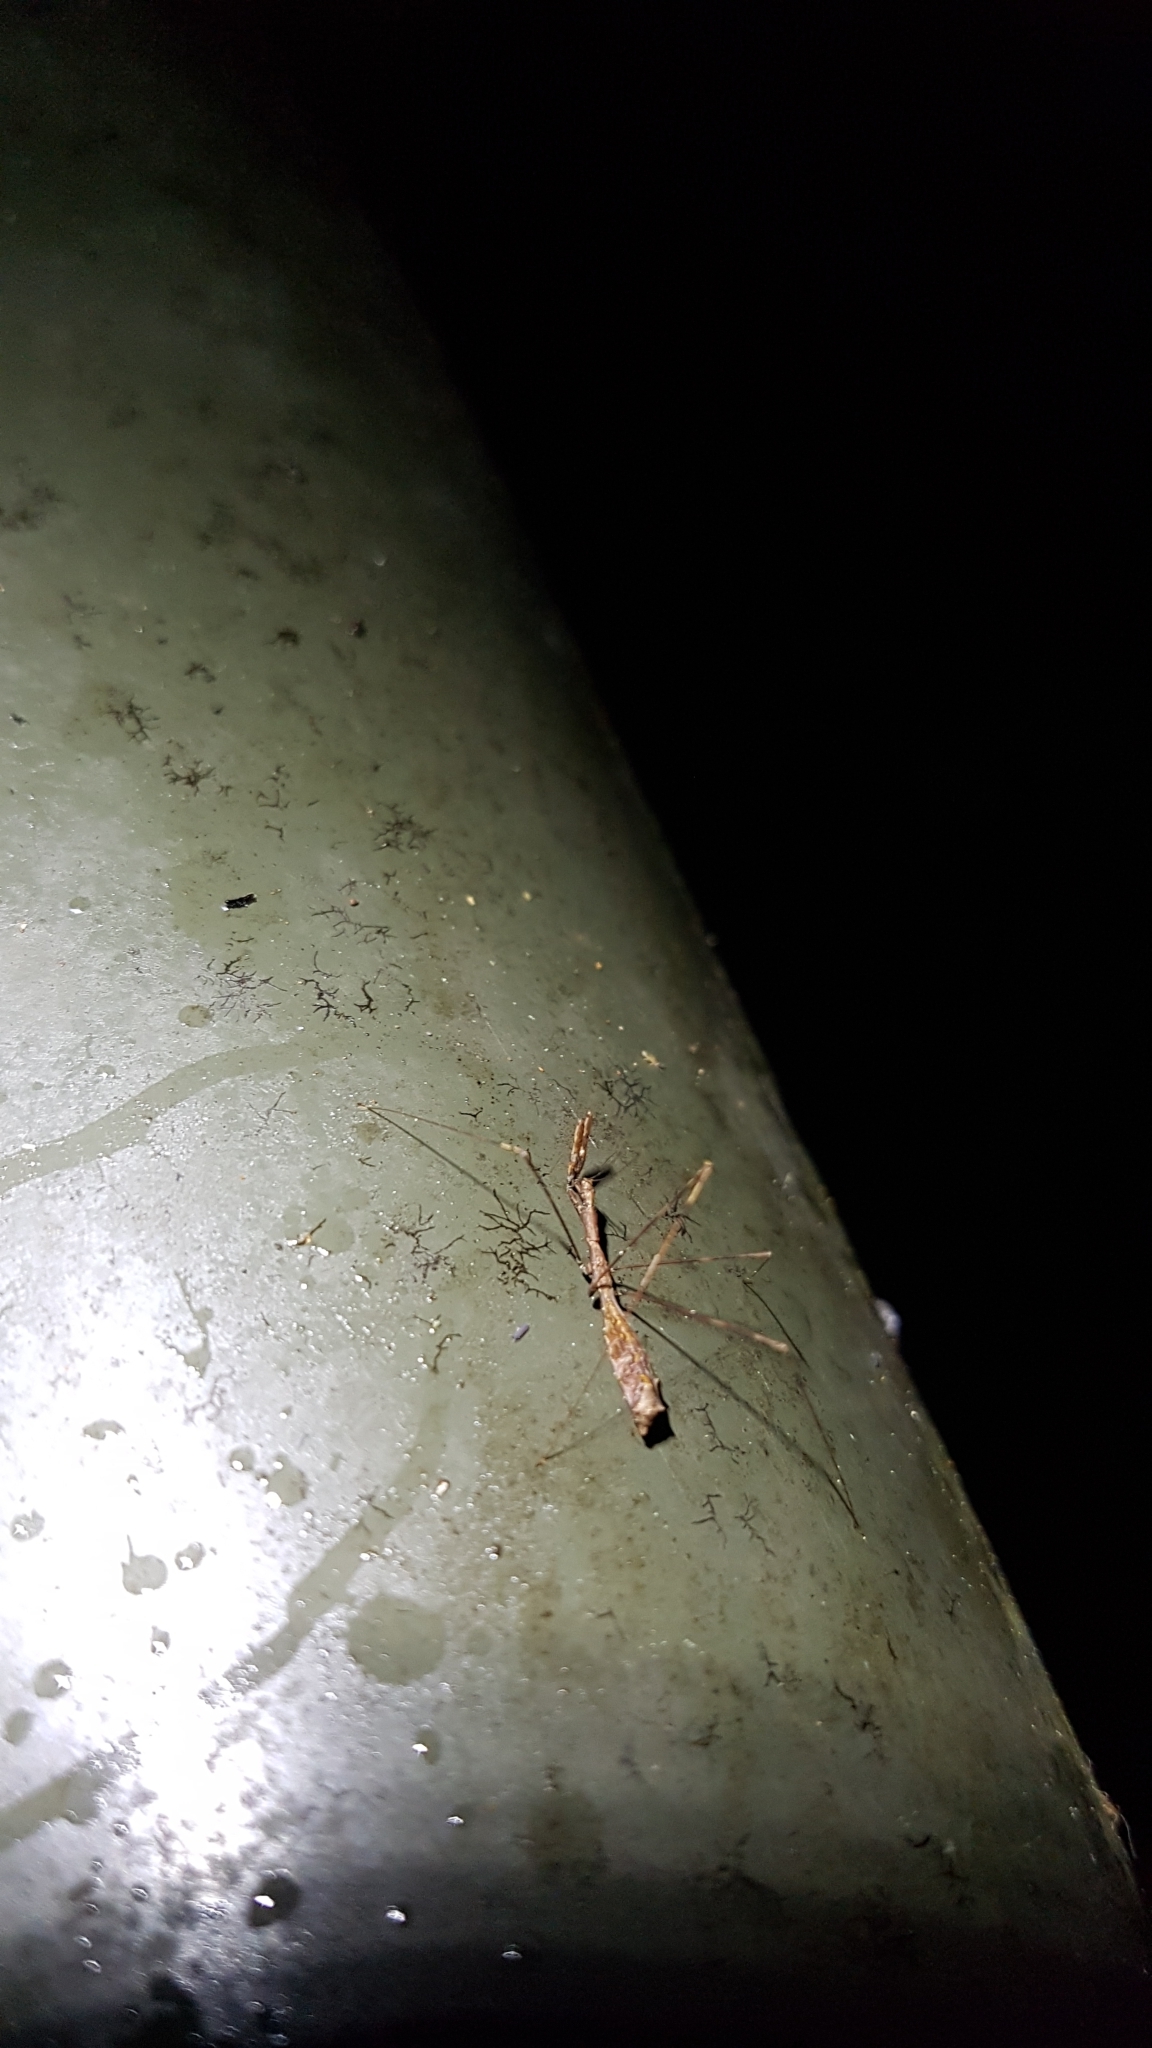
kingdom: Animalia
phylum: Arthropoda
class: Insecta
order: Hemiptera
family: Reduviidae
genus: Ploiaria
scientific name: Ploiaria antipodum
